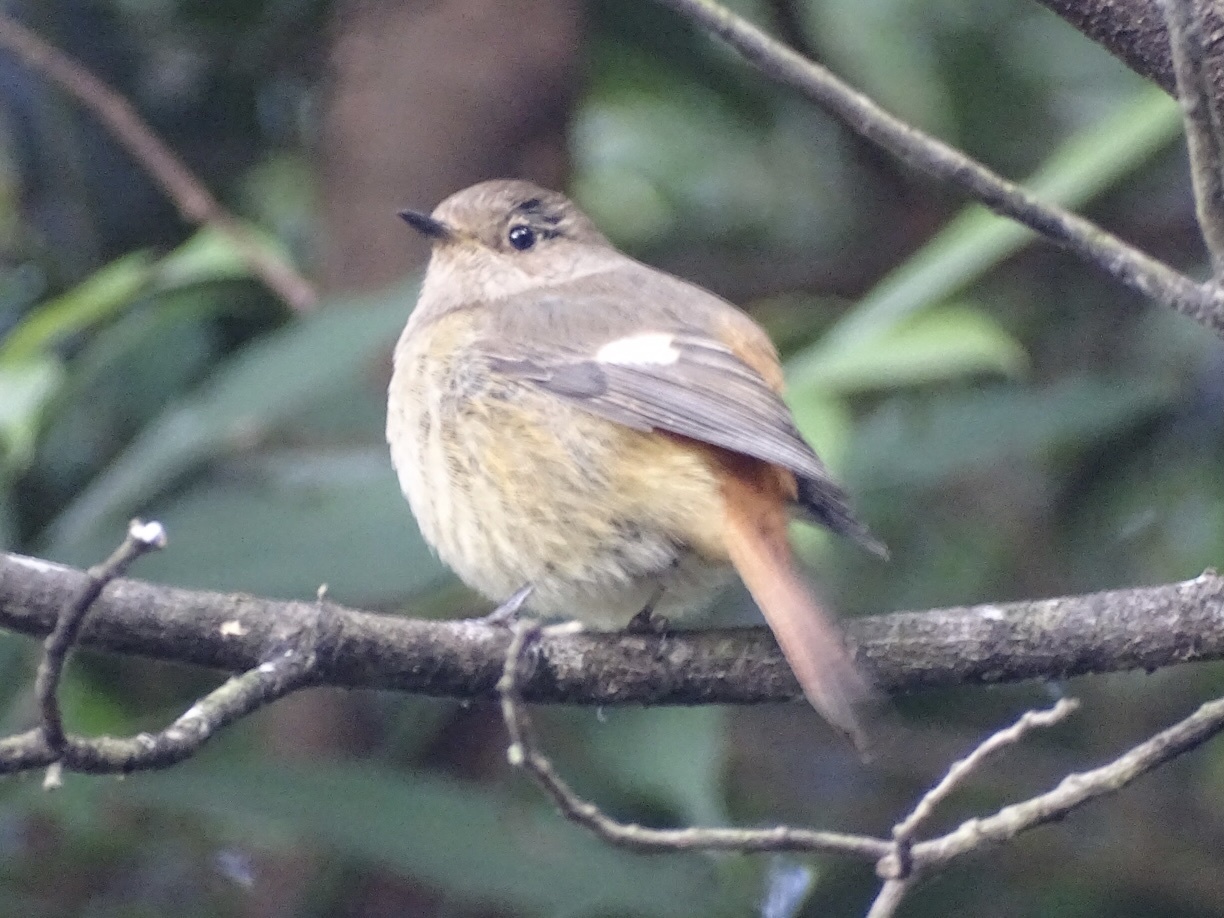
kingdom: Animalia
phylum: Chordata
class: Aves
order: Passeriformes
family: Muscicapidae
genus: Phoenicurus
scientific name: Phoenicurus auroreus
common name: Daurian redstart
